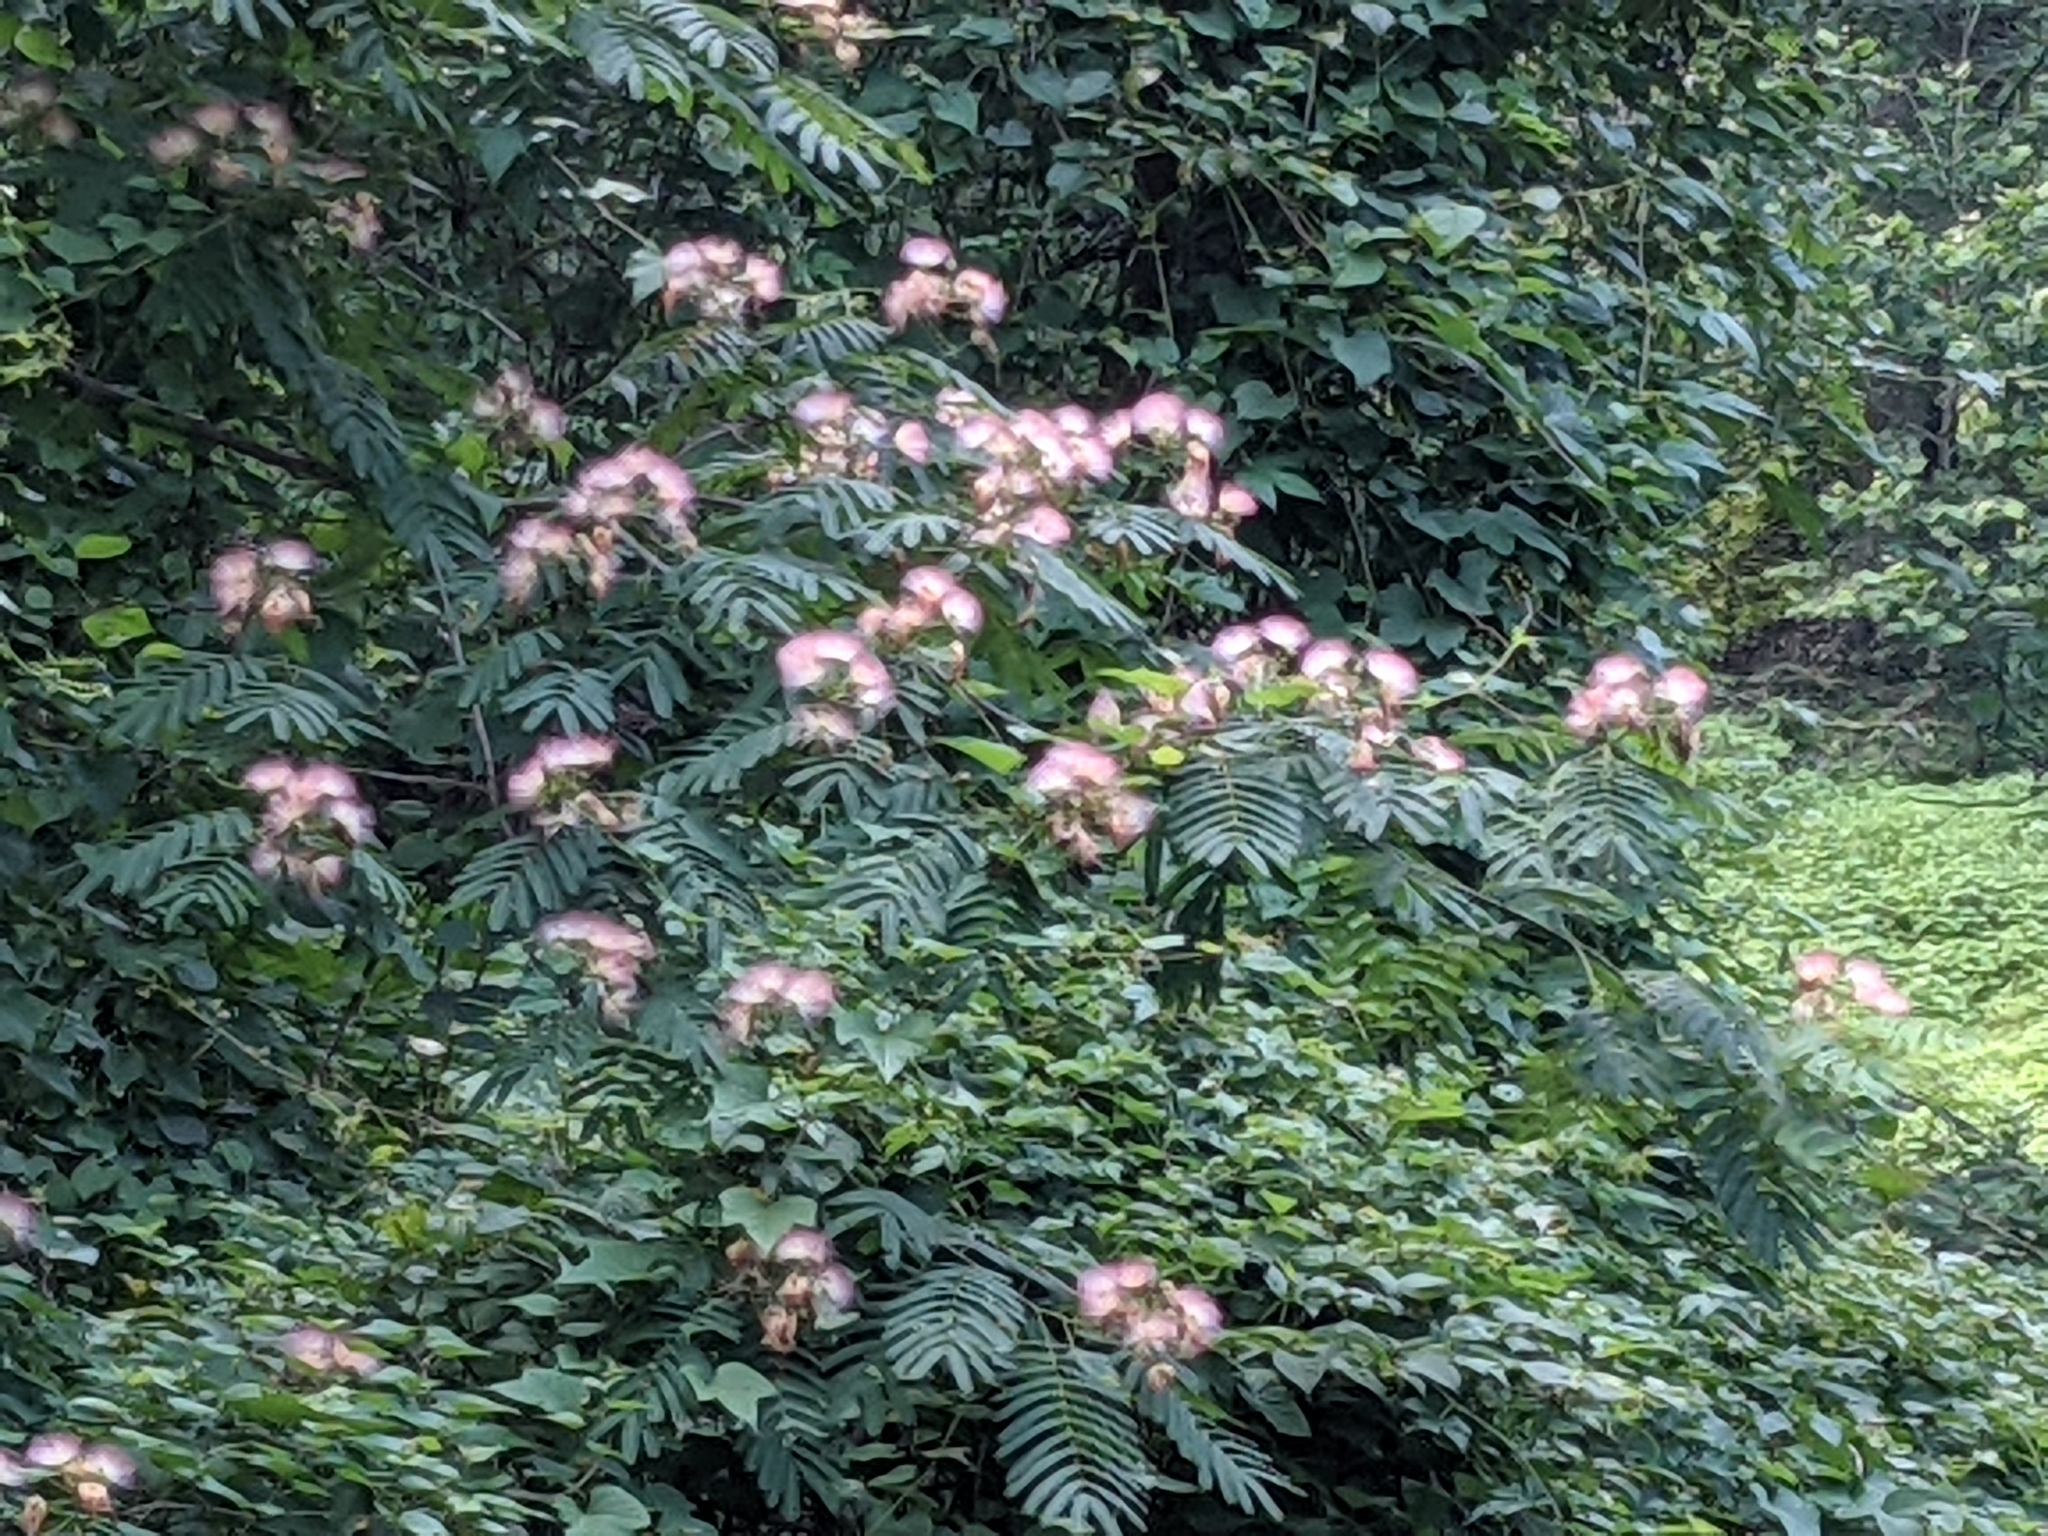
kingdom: Plantae
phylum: Tracheophyta
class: Magnoliopsida
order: Fabales
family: Fabaceae
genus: Albizia
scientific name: Albizia julibrissin
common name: Silktree
